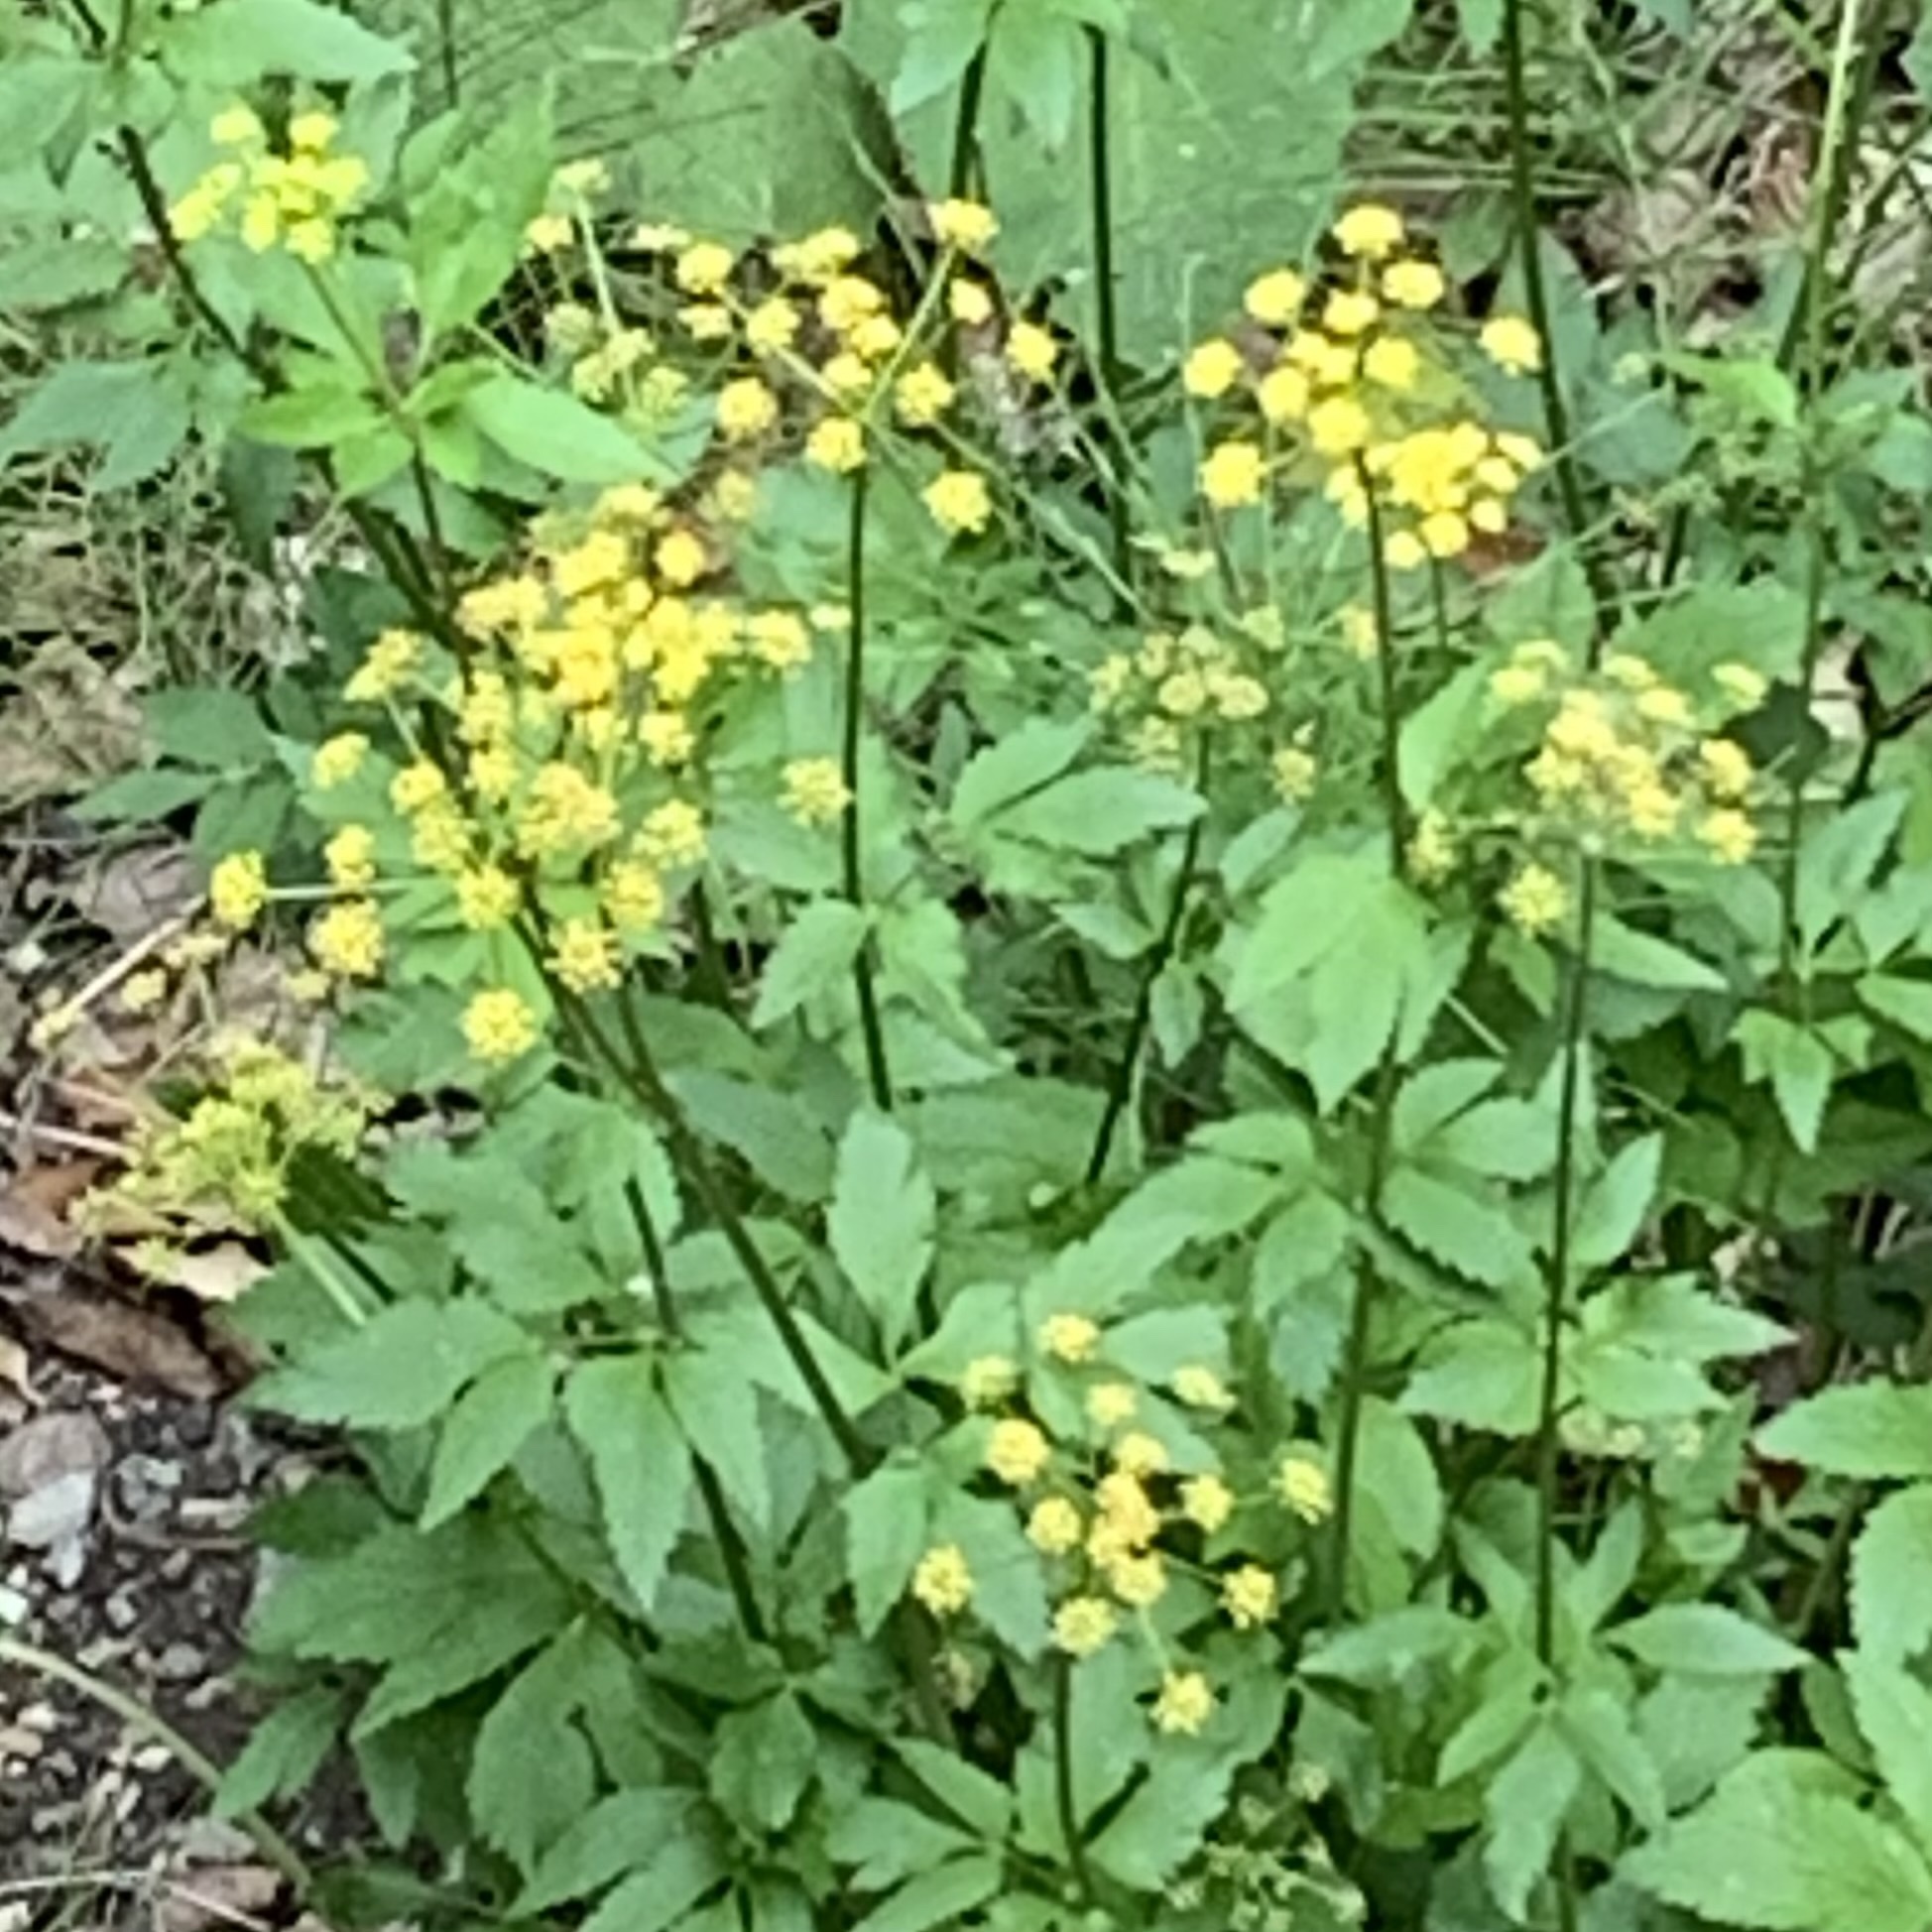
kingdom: Plantae
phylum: Tracheophyta
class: Magnoliopsida
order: Apiales
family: Apiaceae
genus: Zizia
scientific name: Zizia aurea
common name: Golden alexanders
